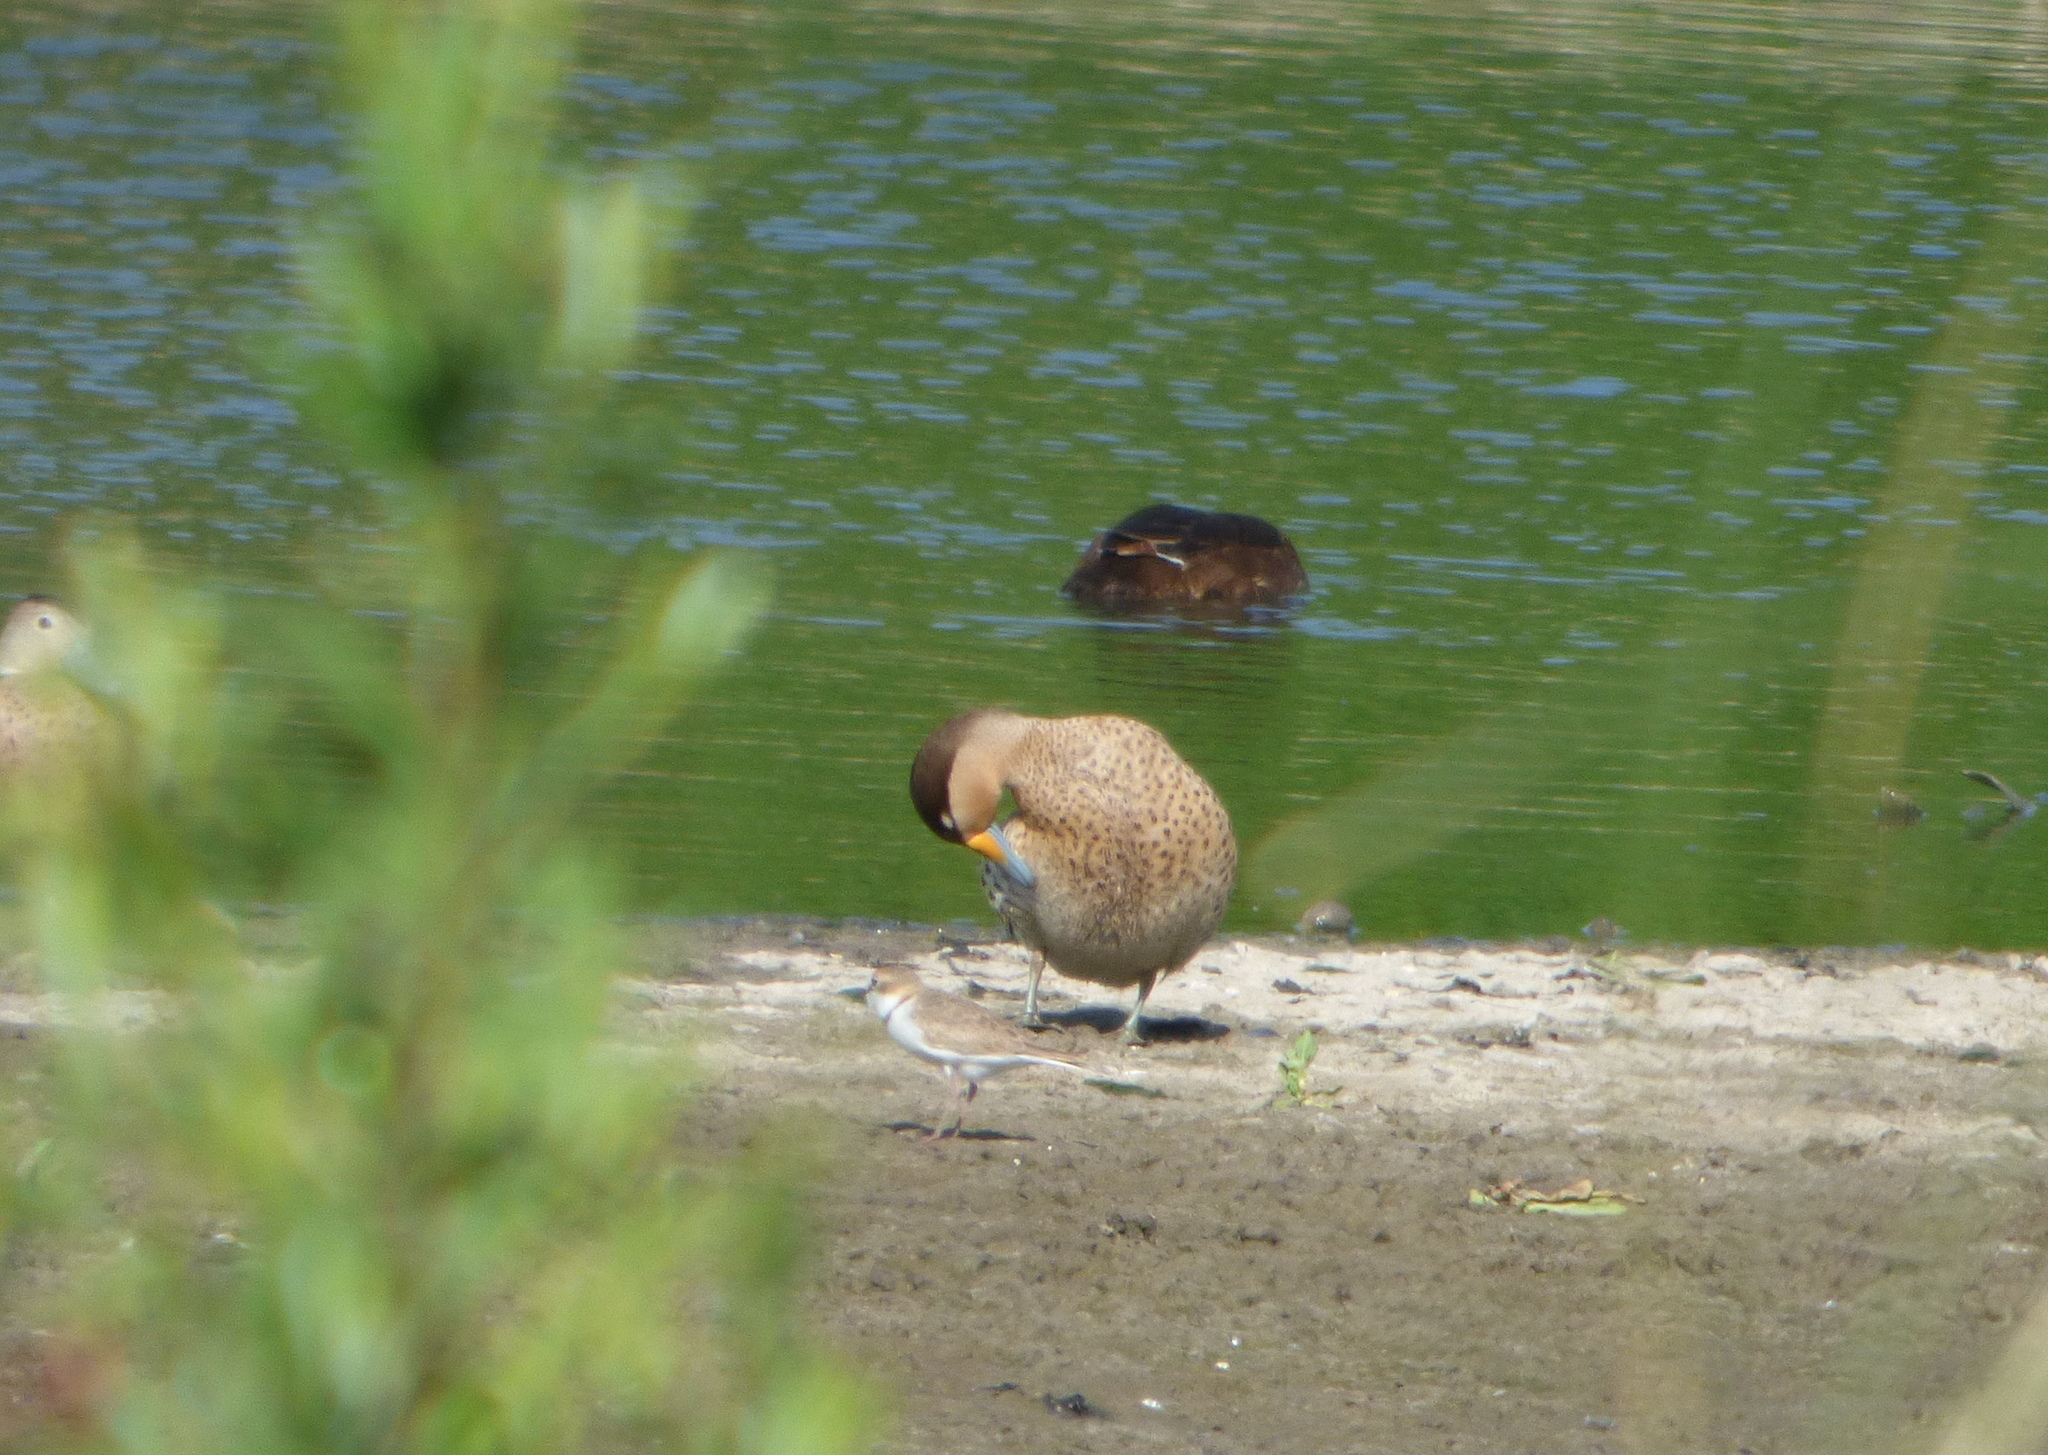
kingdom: Animalia
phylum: Chordata
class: Aves
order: Anseriformes
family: Anatidae
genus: Spatula
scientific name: Spatula versicolor
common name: Silver teal
